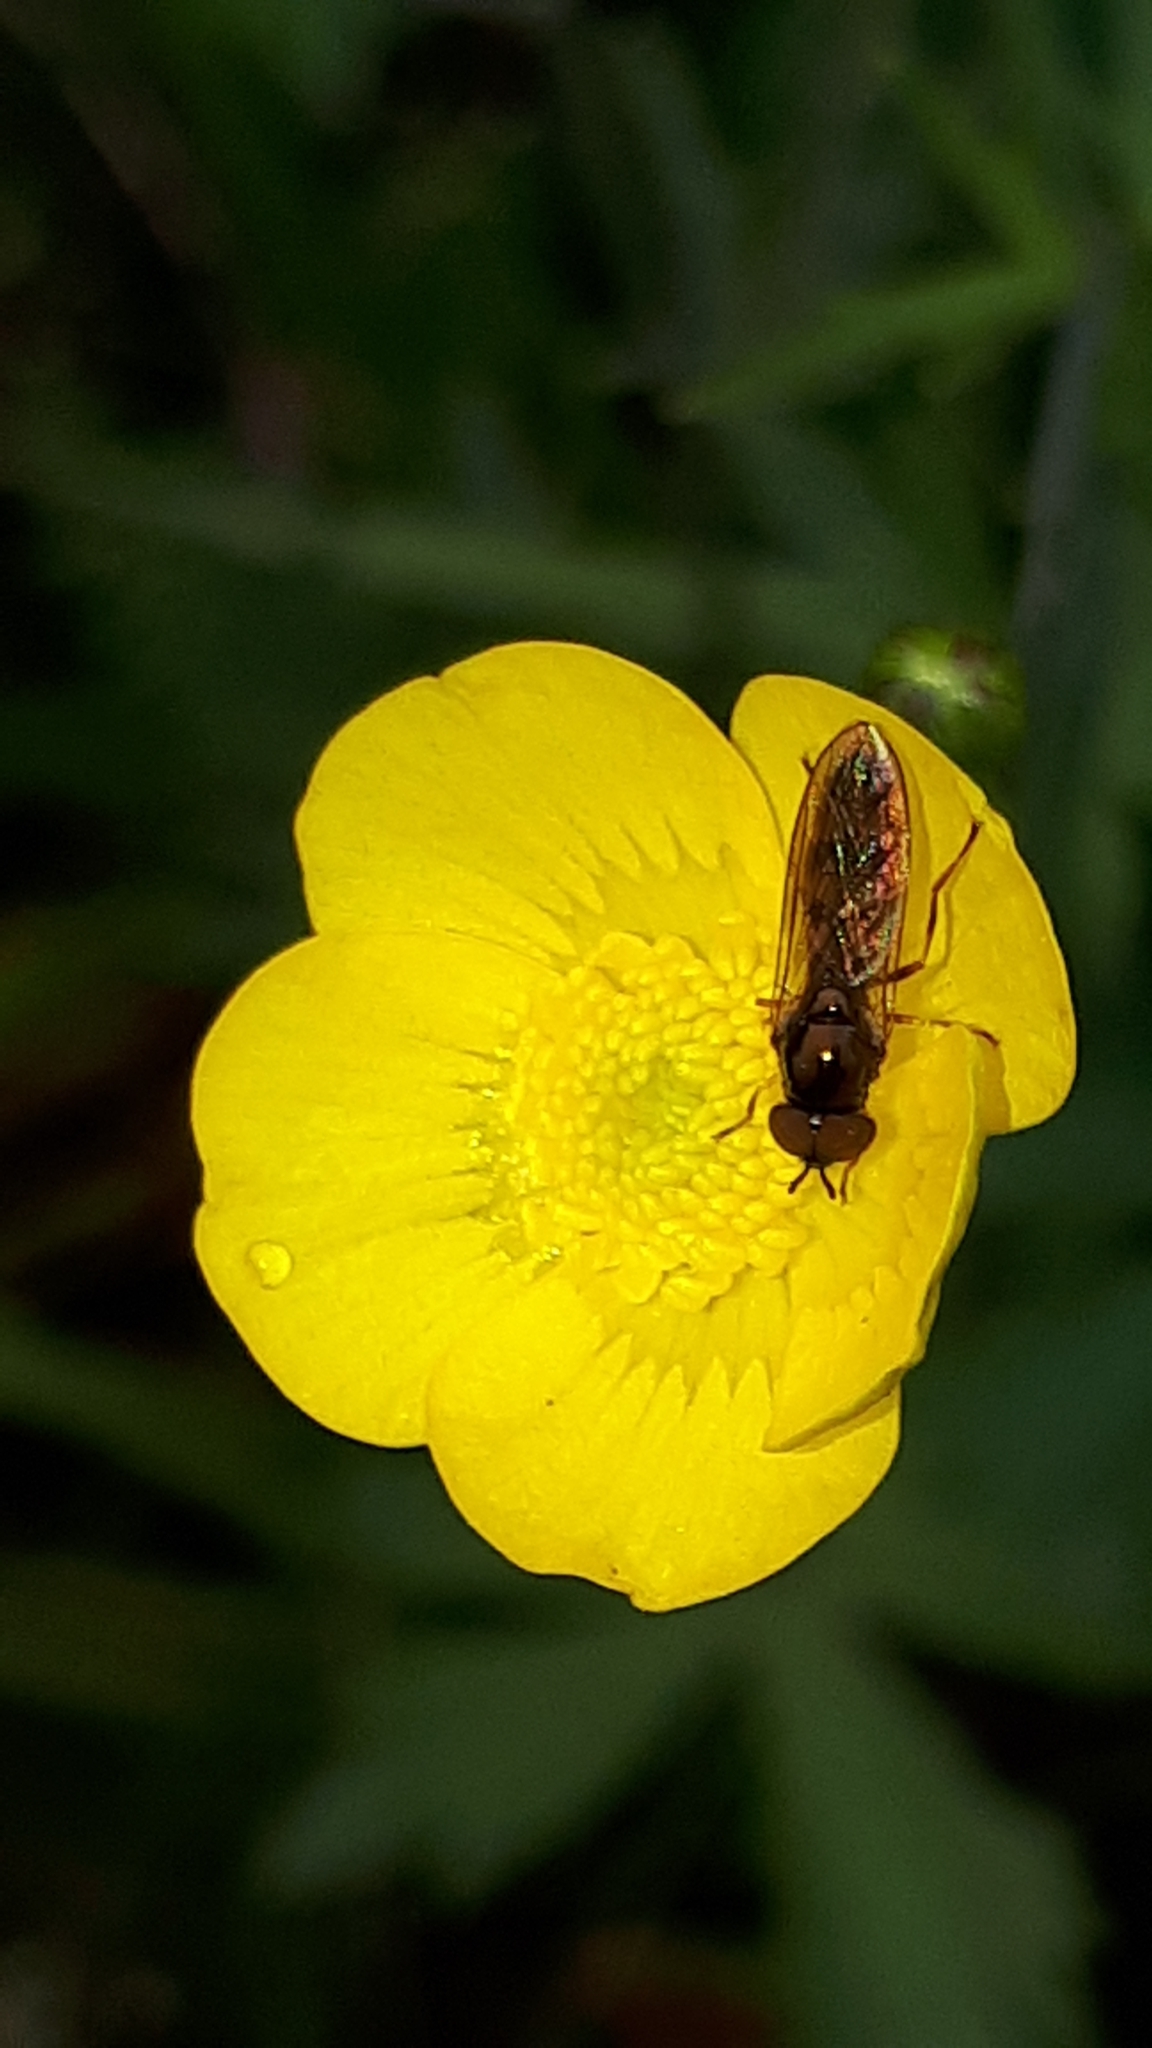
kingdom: Animalia
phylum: Arthropoda
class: Insecta
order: Diptera
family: Syrphidae
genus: Melanostoma
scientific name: Melanostoma mellina
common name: Hover fly
